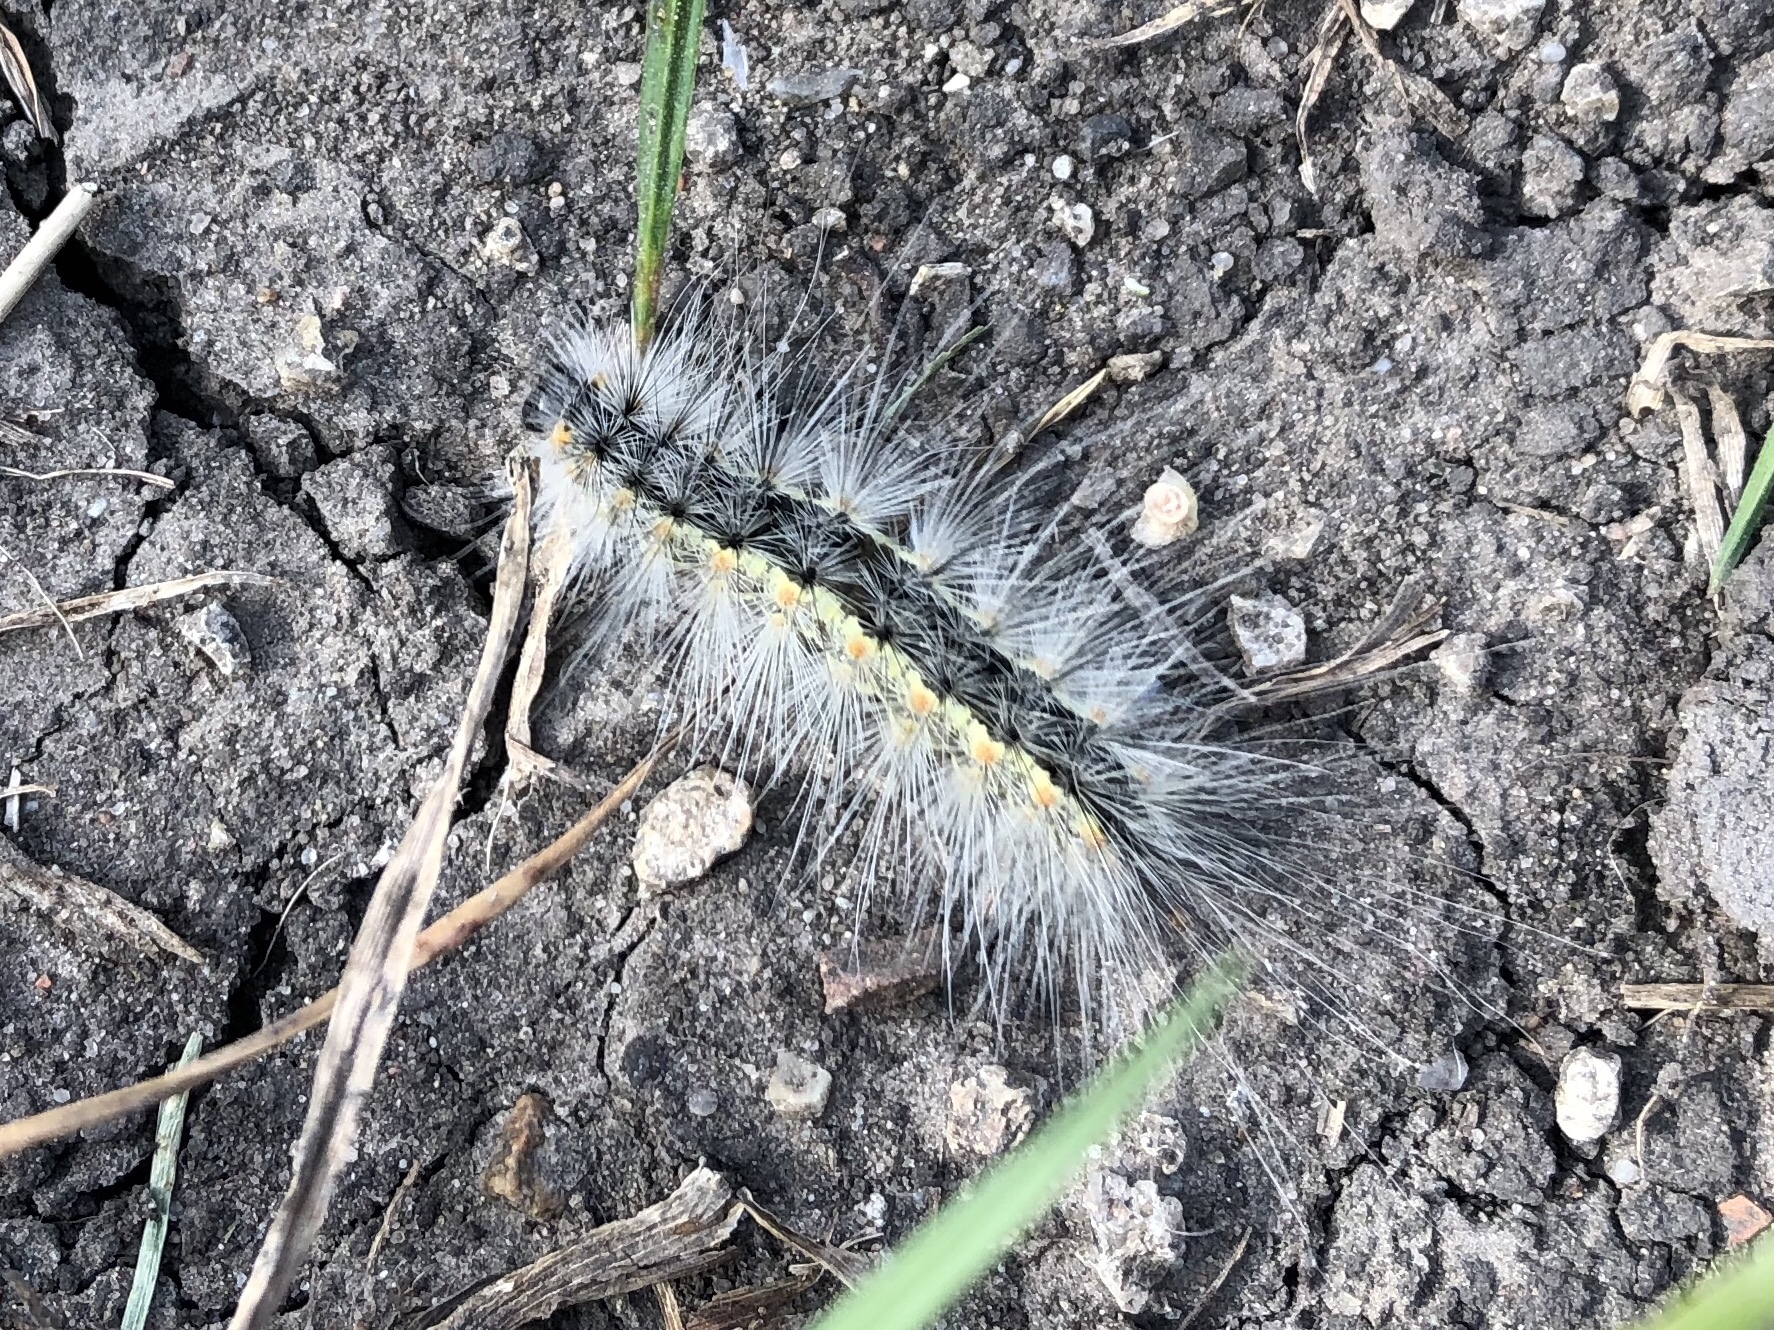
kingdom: Animalia
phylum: Arthropoda
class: Insecta
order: Lepidoptera
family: Erebidae
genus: Hyphantria
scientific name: Hyphantria cunea
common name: American white moth
